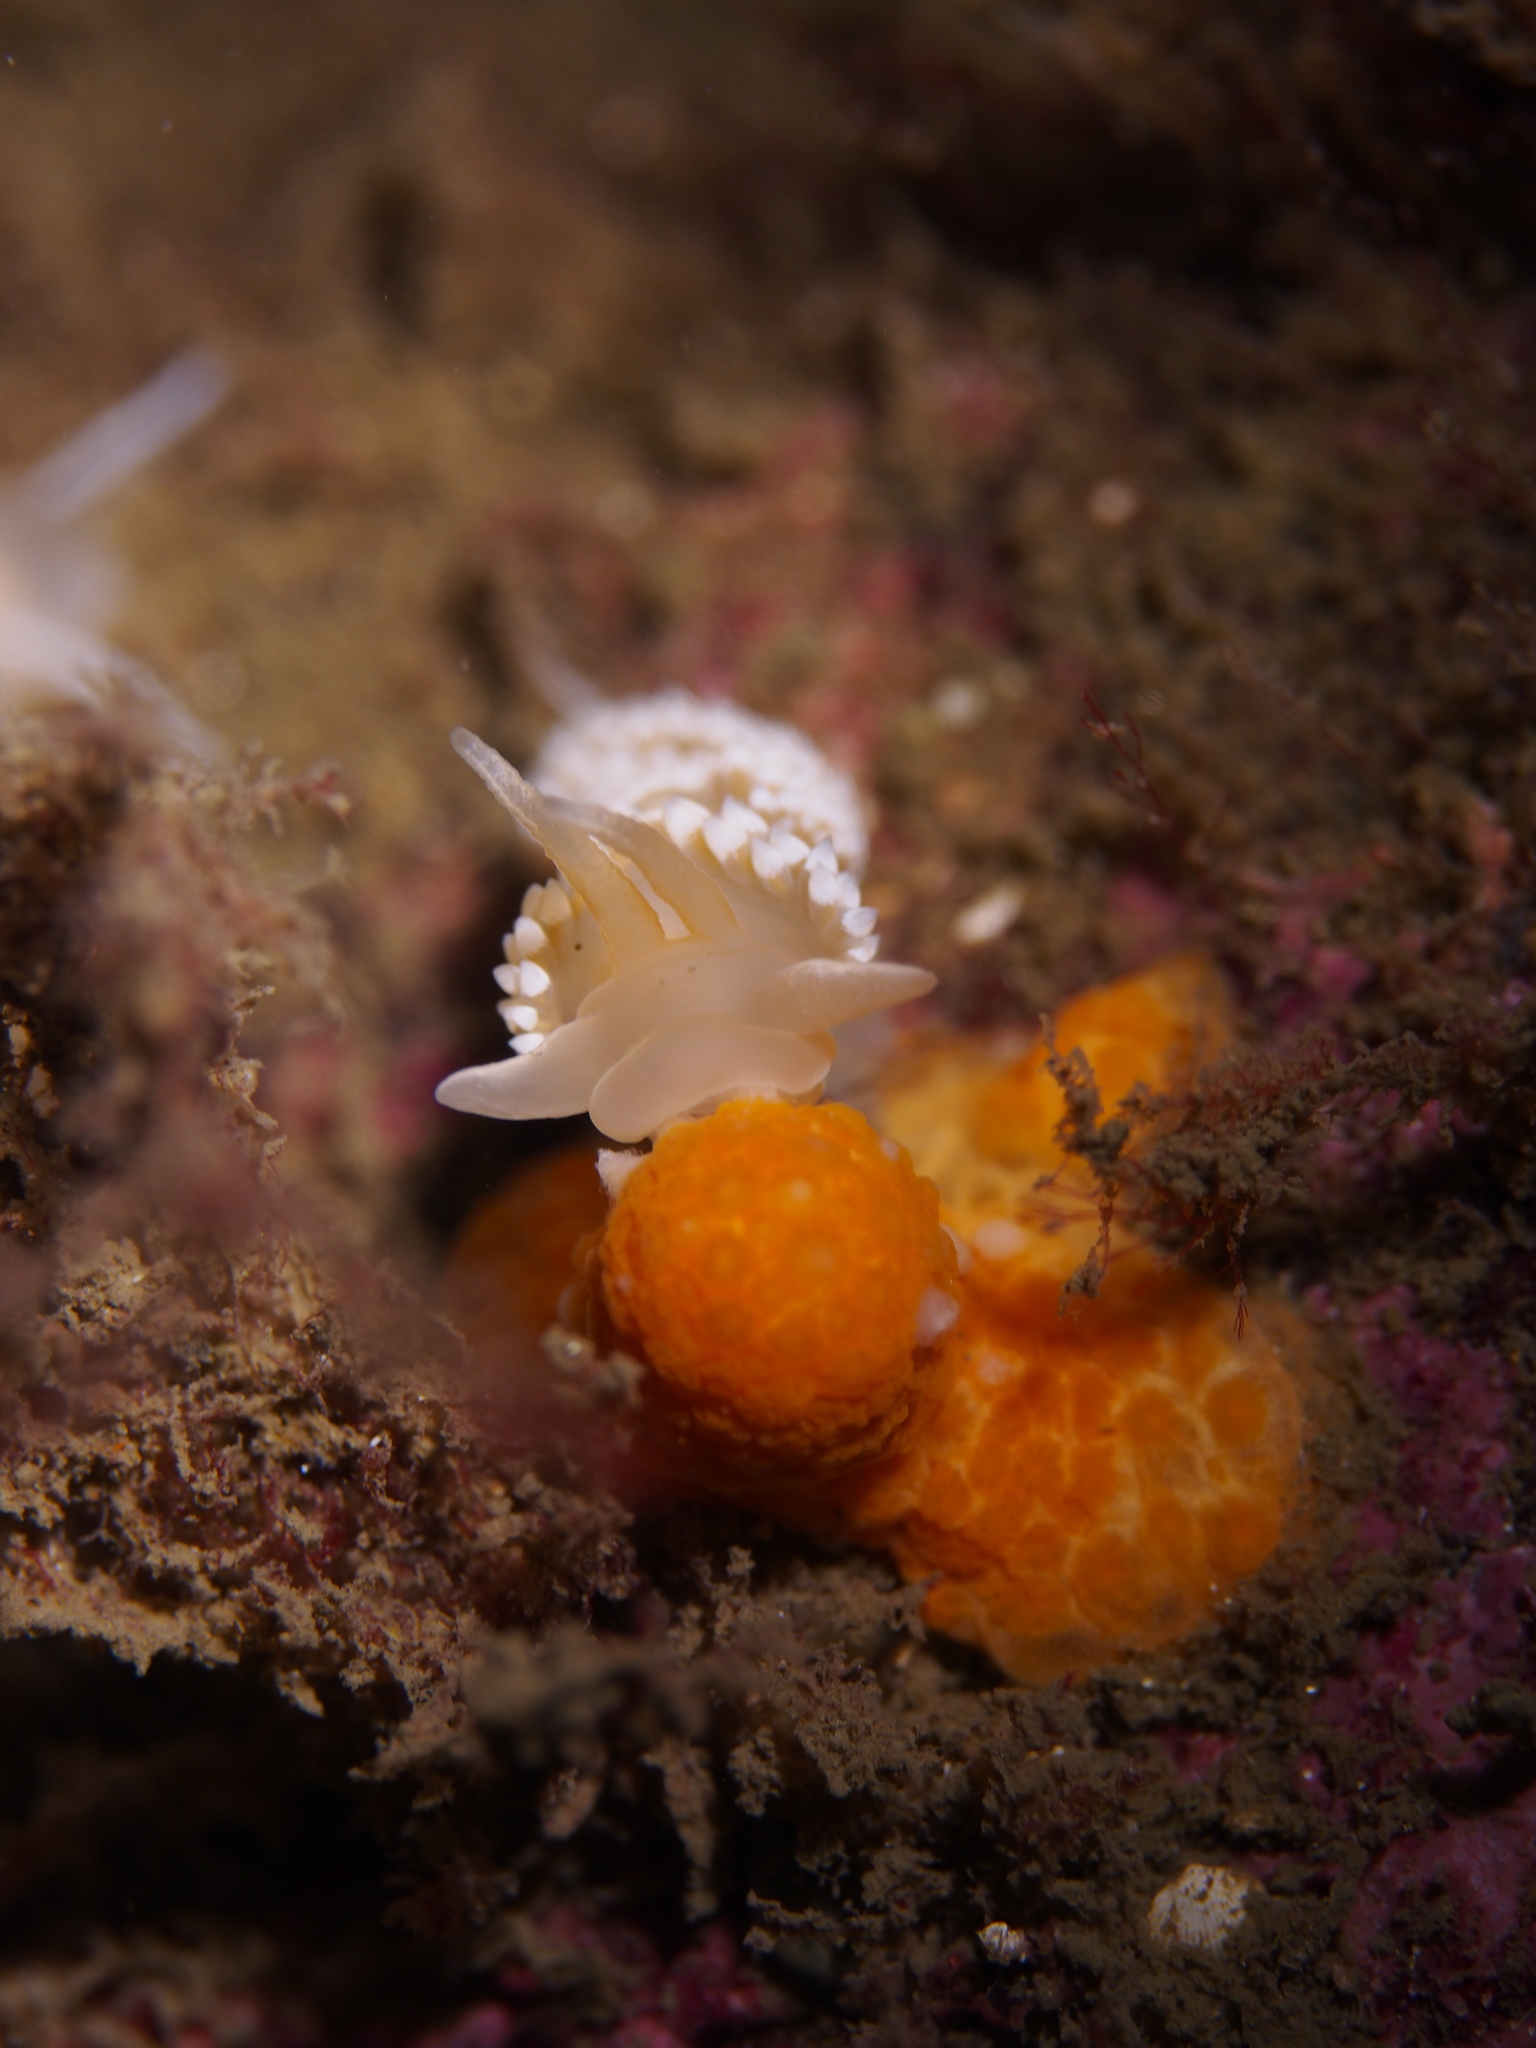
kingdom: Animalia
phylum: Mollusca
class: Gastropoda
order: Nudibranchia
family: Coryphellidae
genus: Coryphella
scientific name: Coryphella verrucosa
